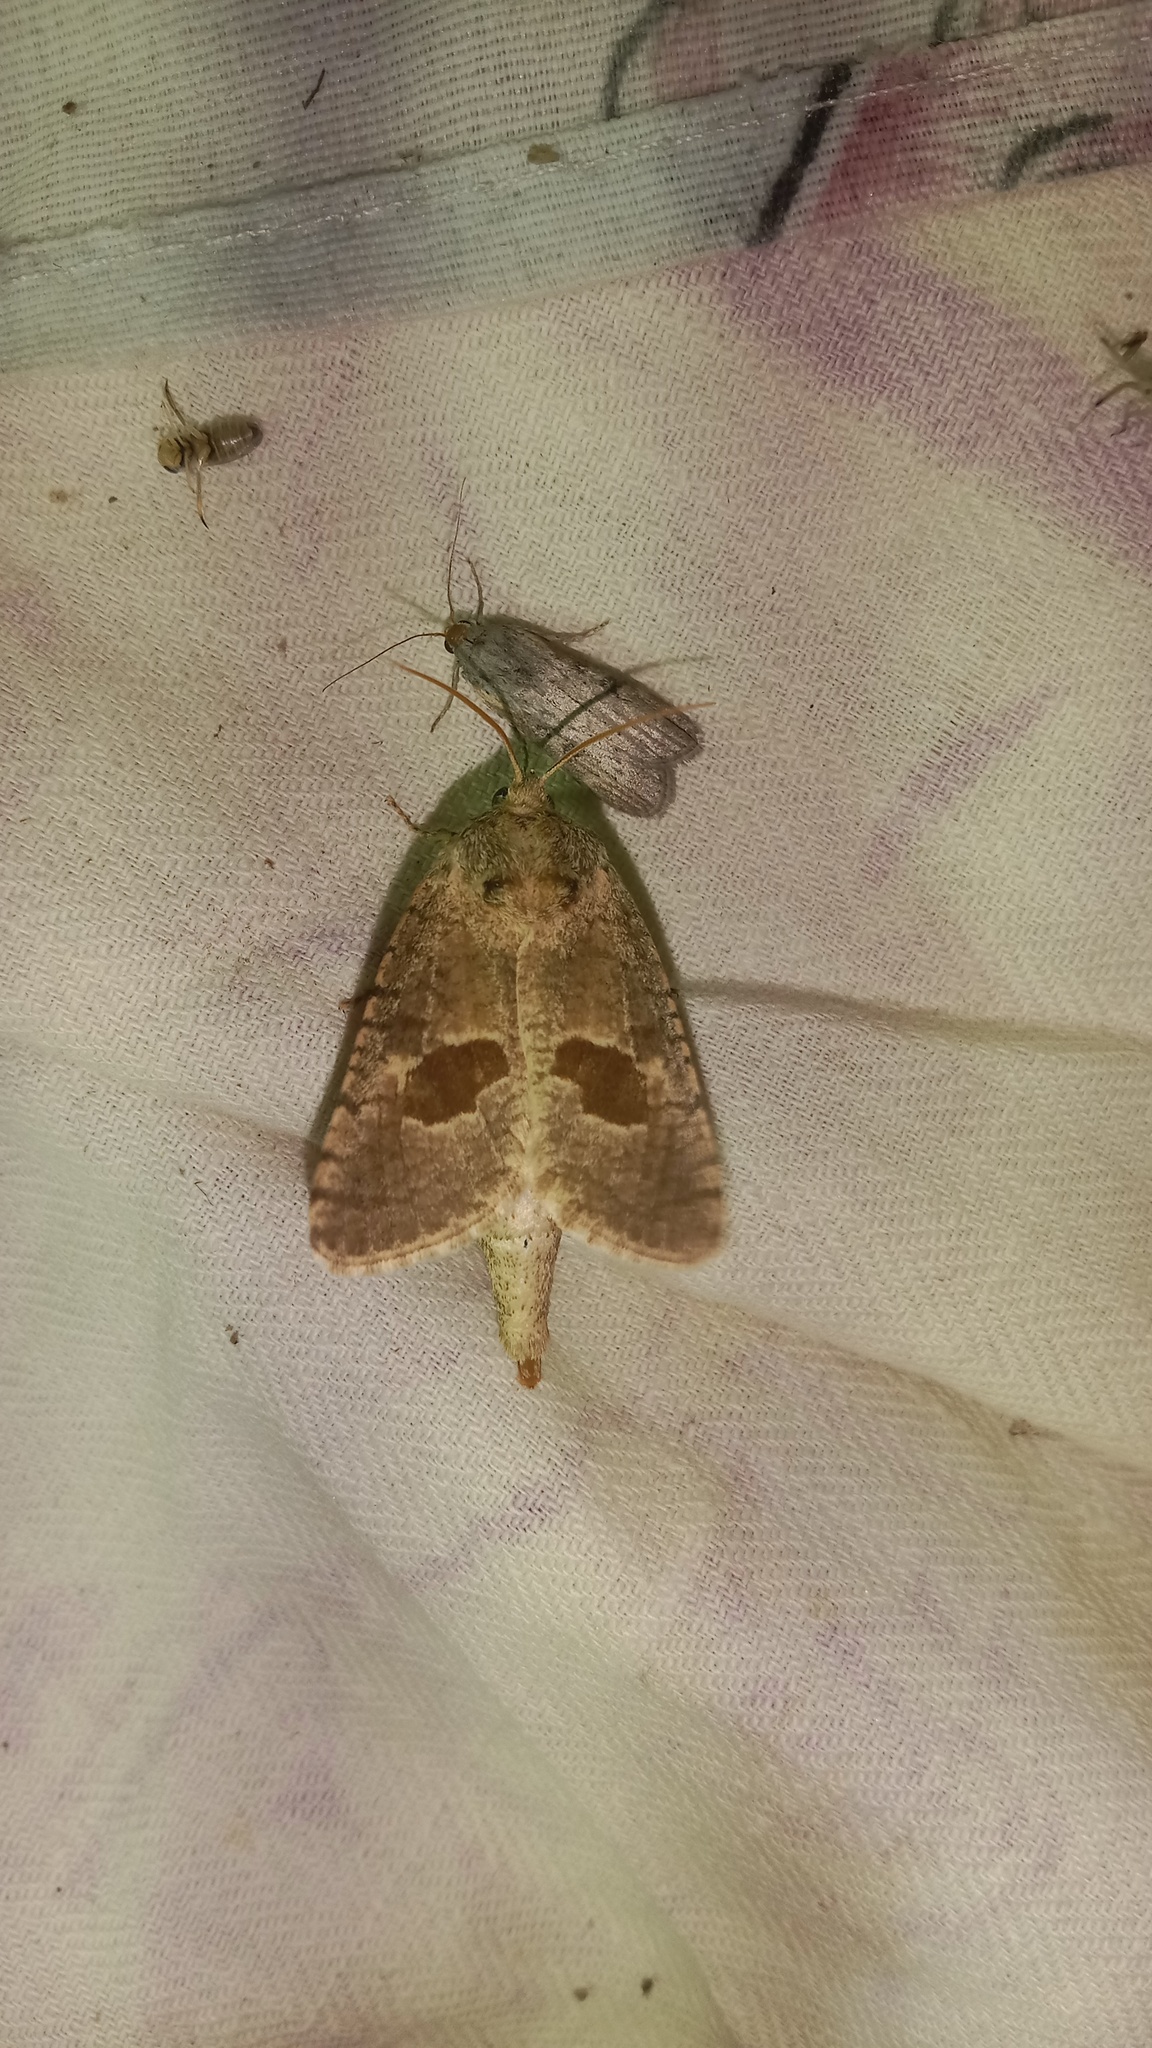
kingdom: Animalia
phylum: Arthropoda
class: Insecta
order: Lepidoptera
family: Cossidae
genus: Paracossulus
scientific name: Paracossulus thrips
